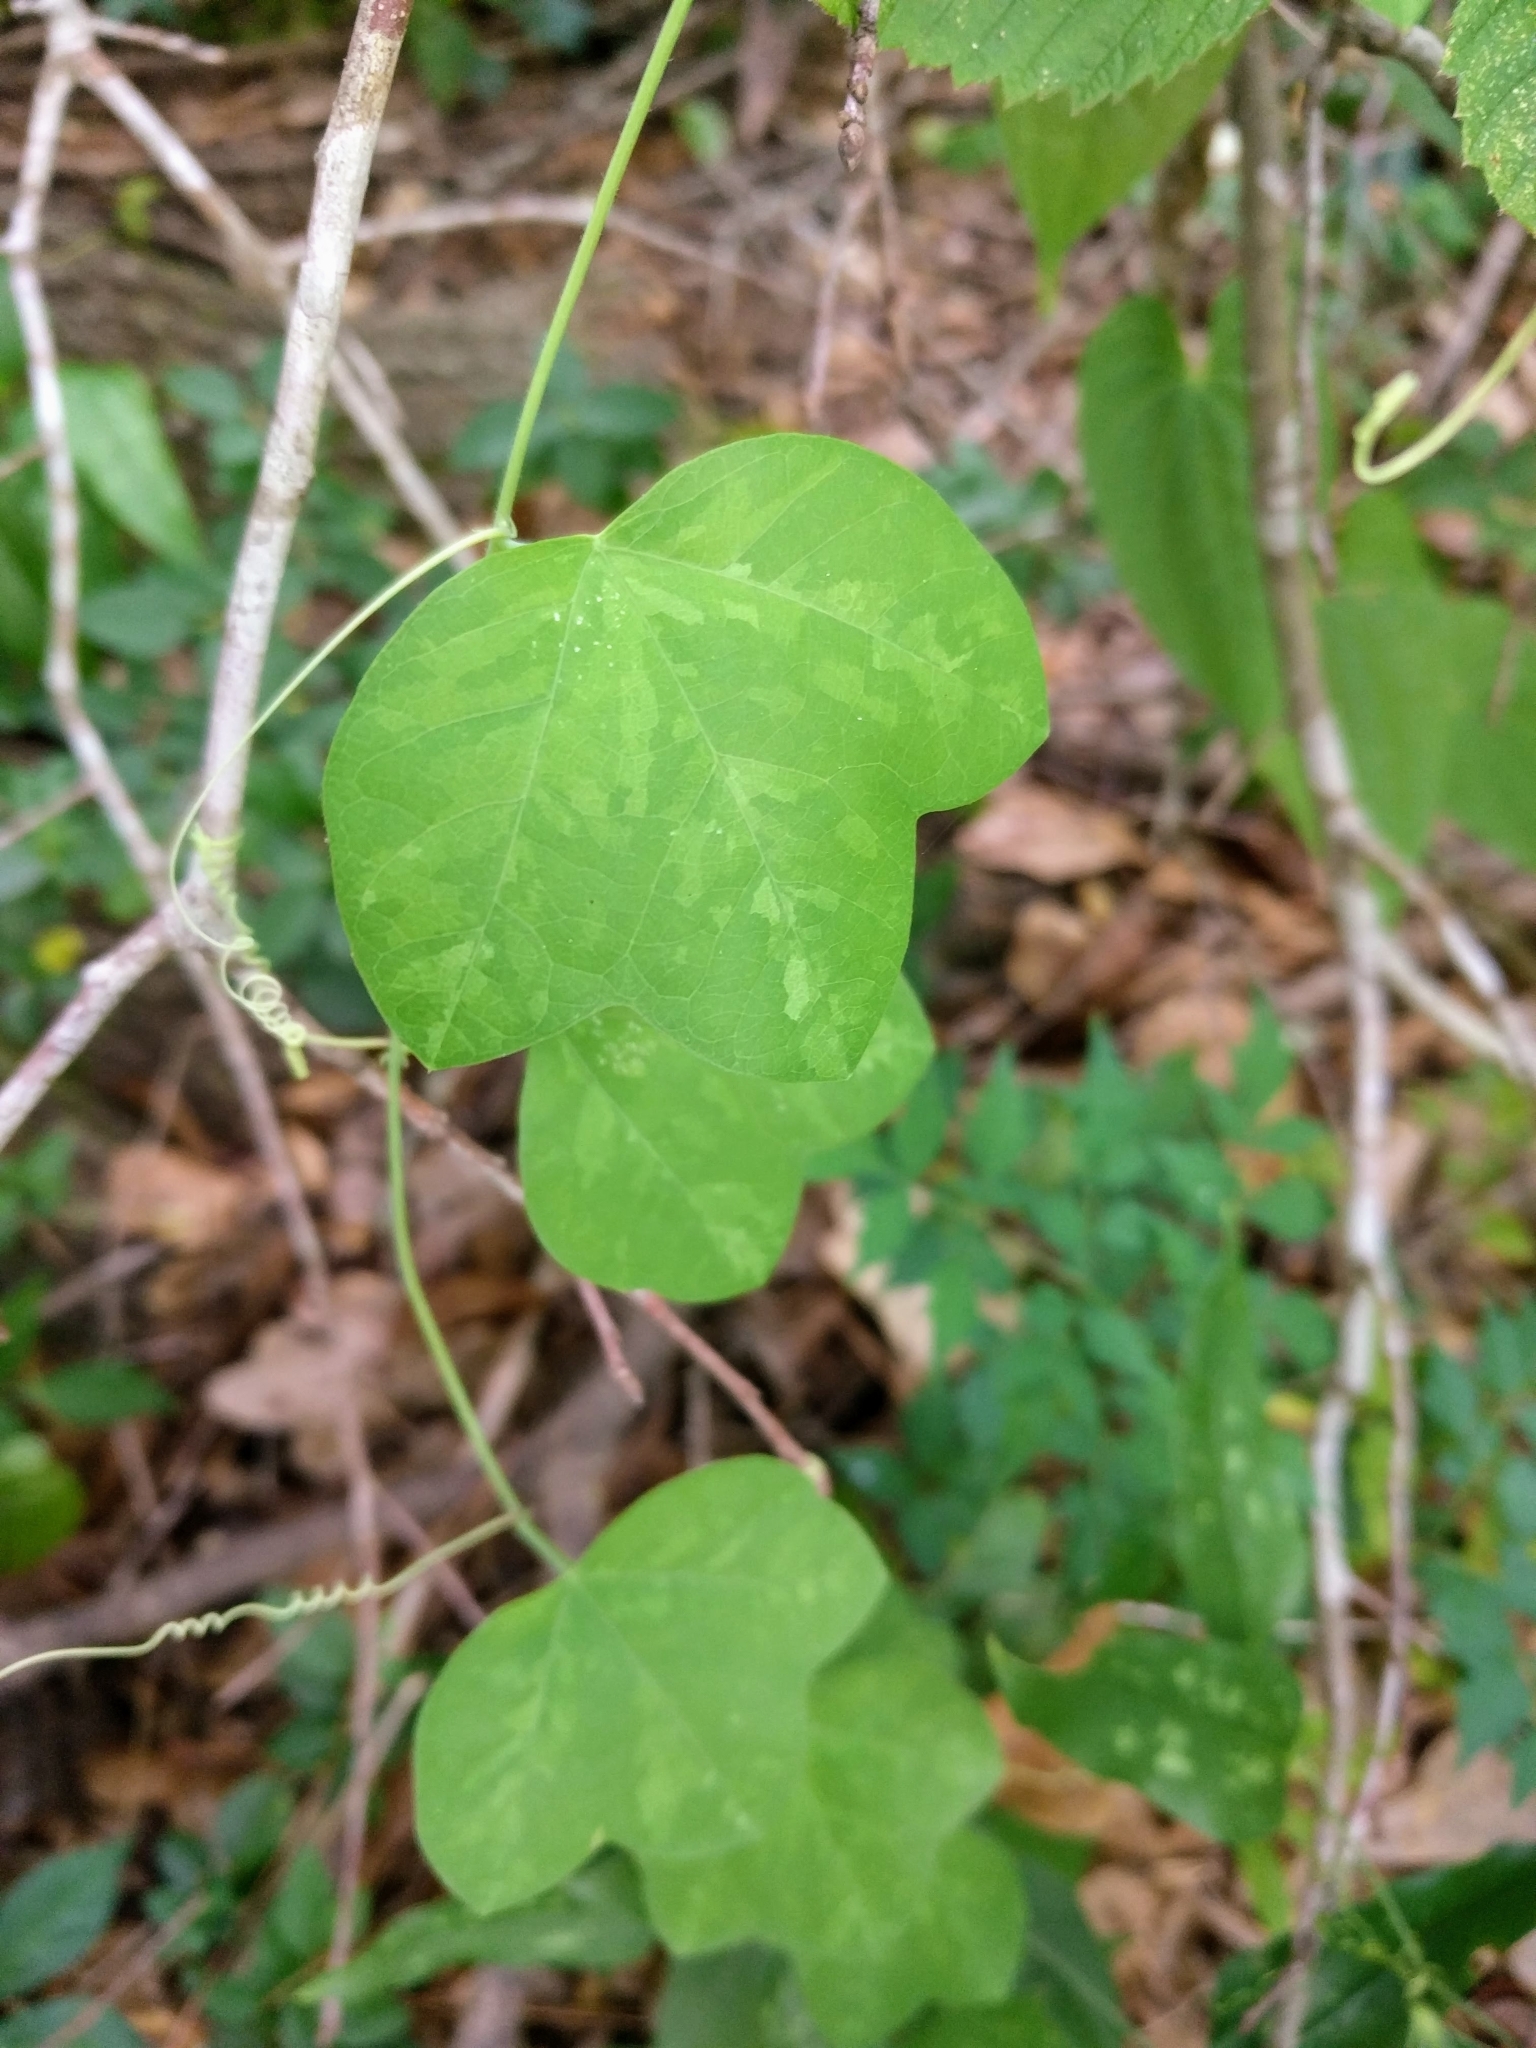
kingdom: Plantae
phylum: Tracheophyta
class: Magnoliopsida
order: Malpighiales
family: Passifloraceae
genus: Passiflora
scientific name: Passiflora lutea
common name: Yellow passionflower
